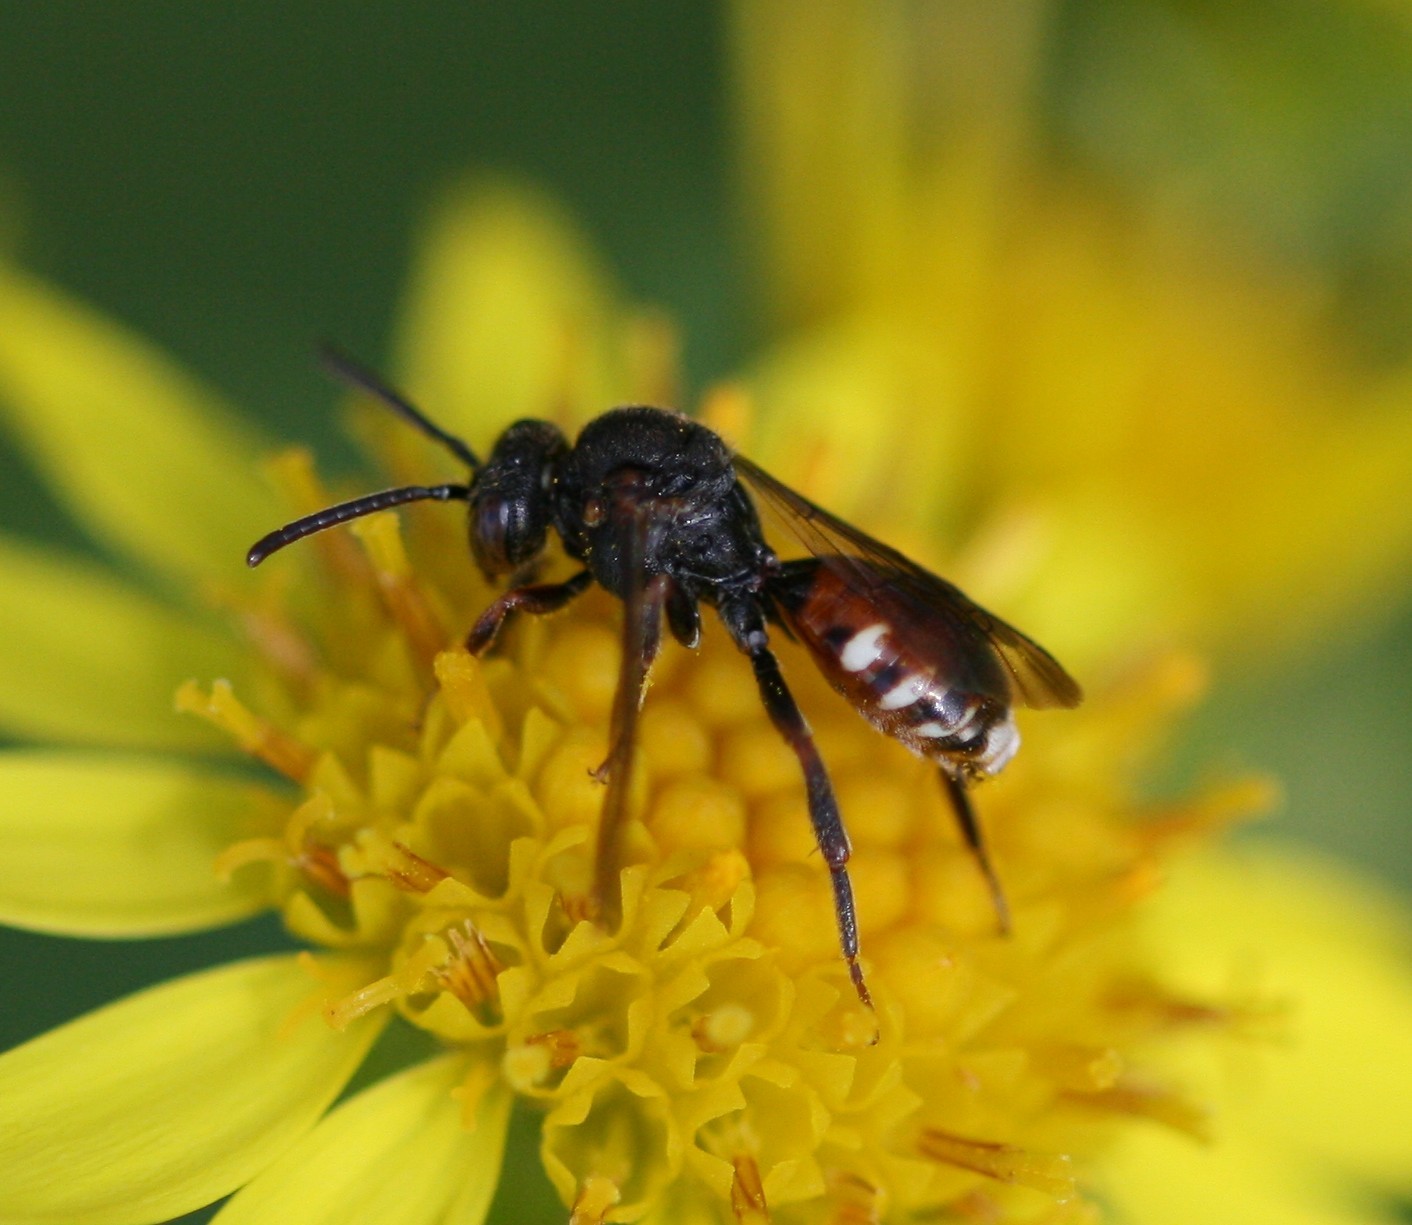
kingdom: Animalia
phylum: Arthropoda
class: Insecta
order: Hymenoptera
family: Apidae
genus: Nomada
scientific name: Nomada obtusifrons
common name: Flat-ridged nomad bee
